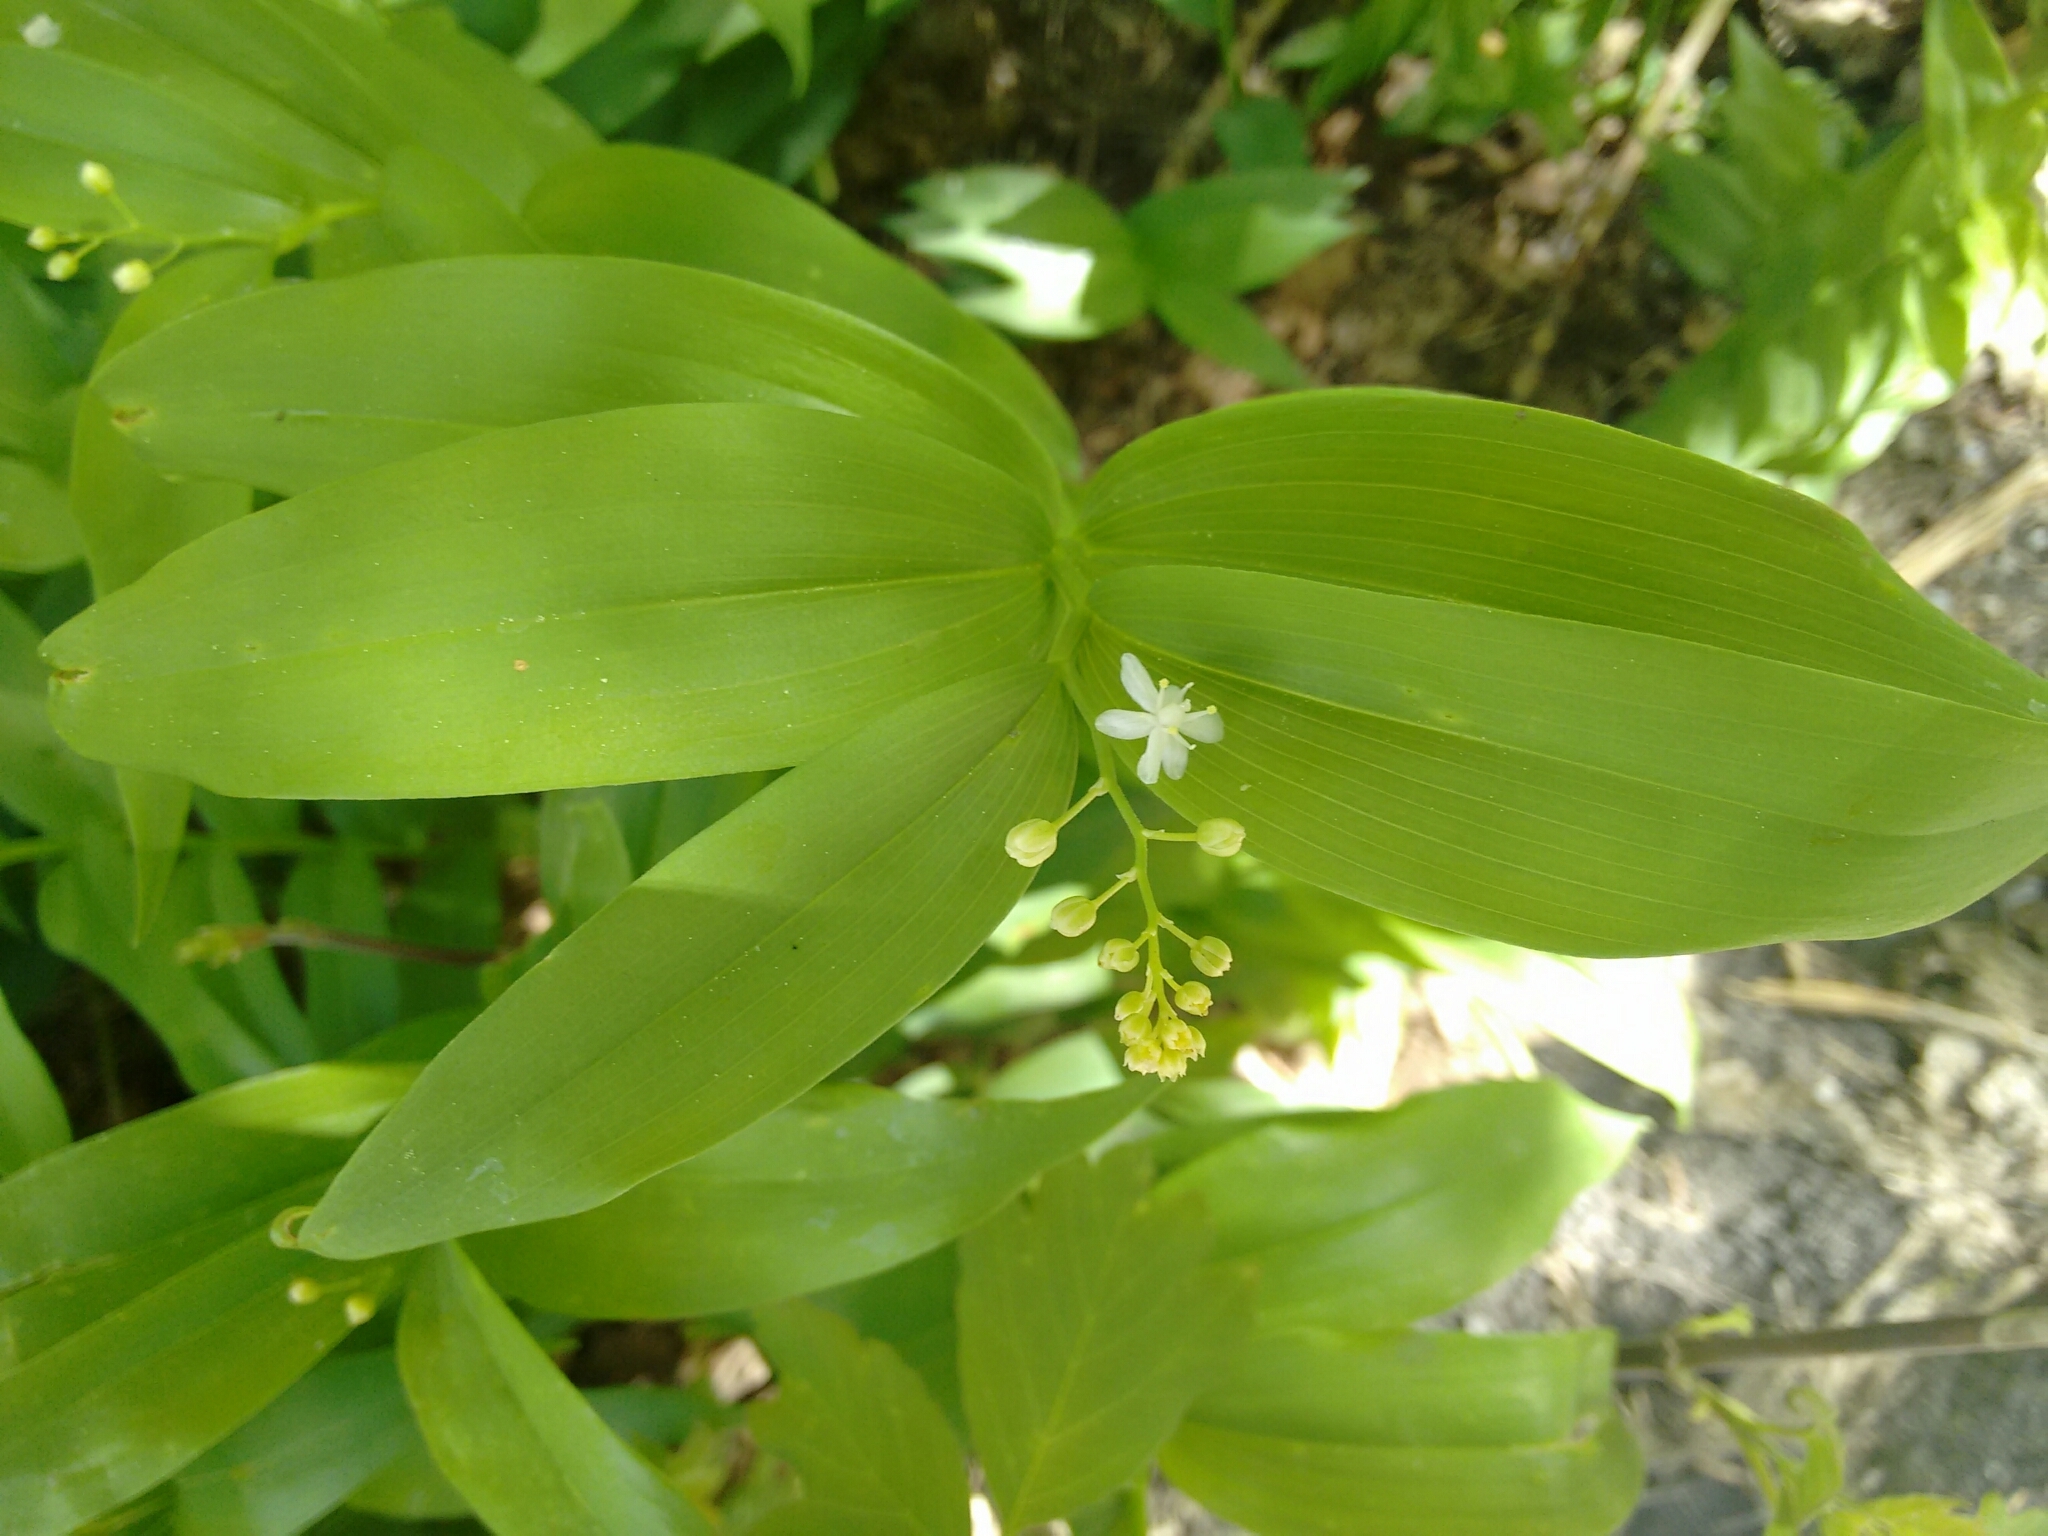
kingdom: Plantae
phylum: Tracheophyta
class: Liliopsida
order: Asparagales
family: Asparagaceae
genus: Maianthemum
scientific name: Maianthemum stellatum
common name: Little false solomon's seal
